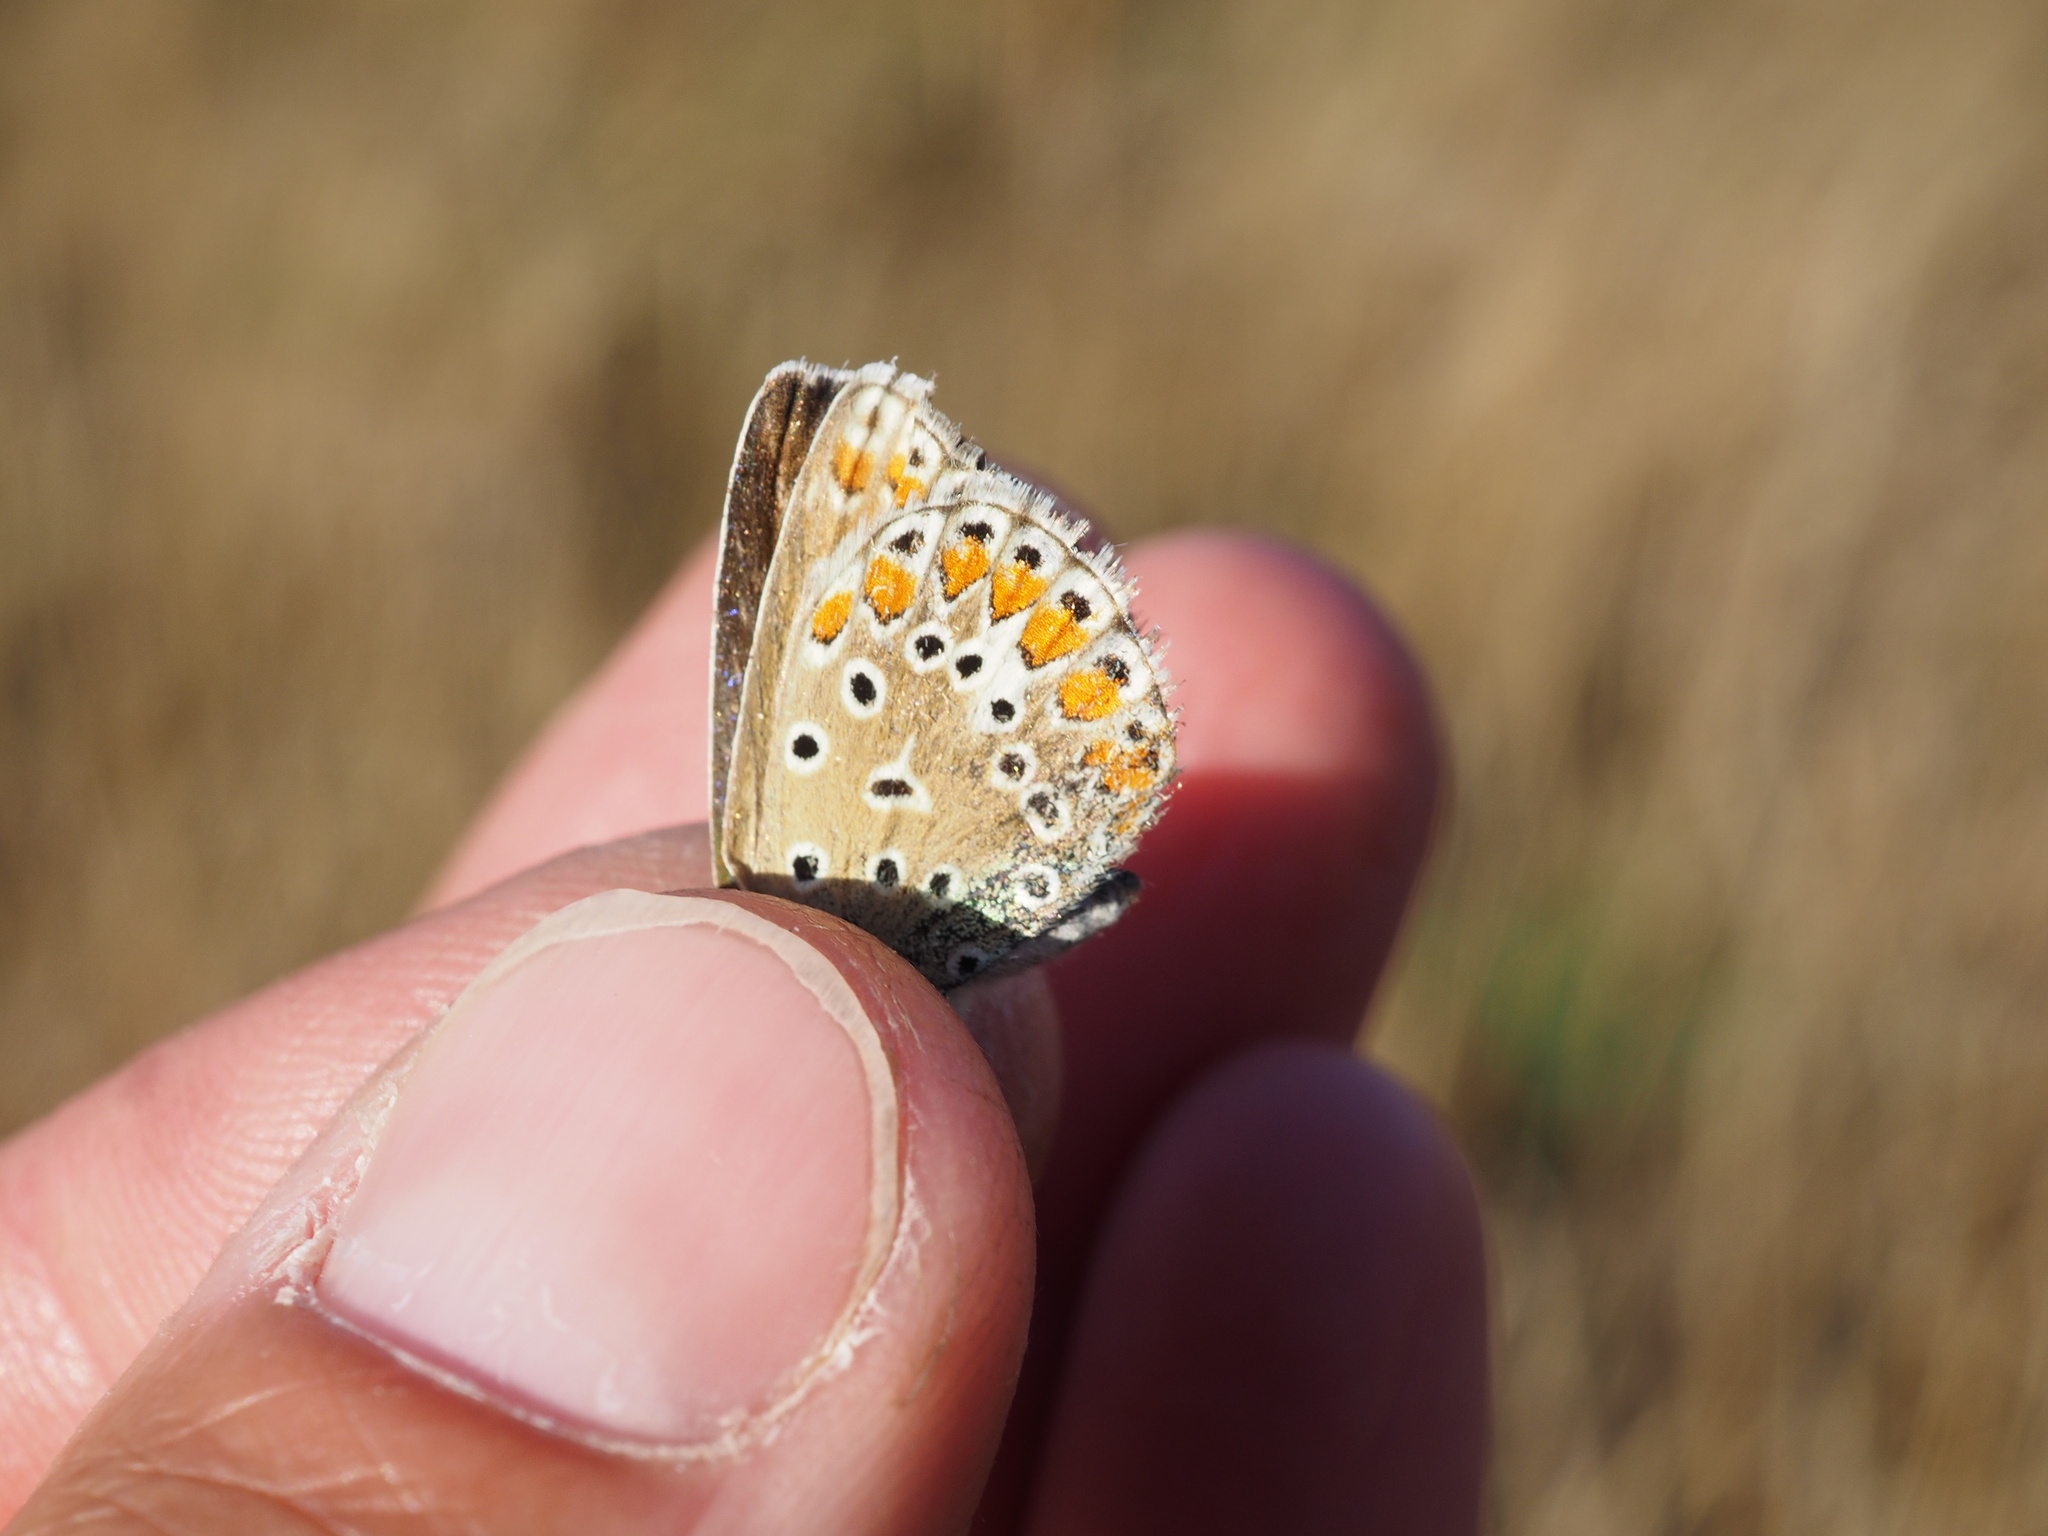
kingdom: Animalia
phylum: Arthropoda
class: Insecta
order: Lepidoptera
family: Lycaenidae
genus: Polyommatus
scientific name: Polyommatus icarus
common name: Common blue
